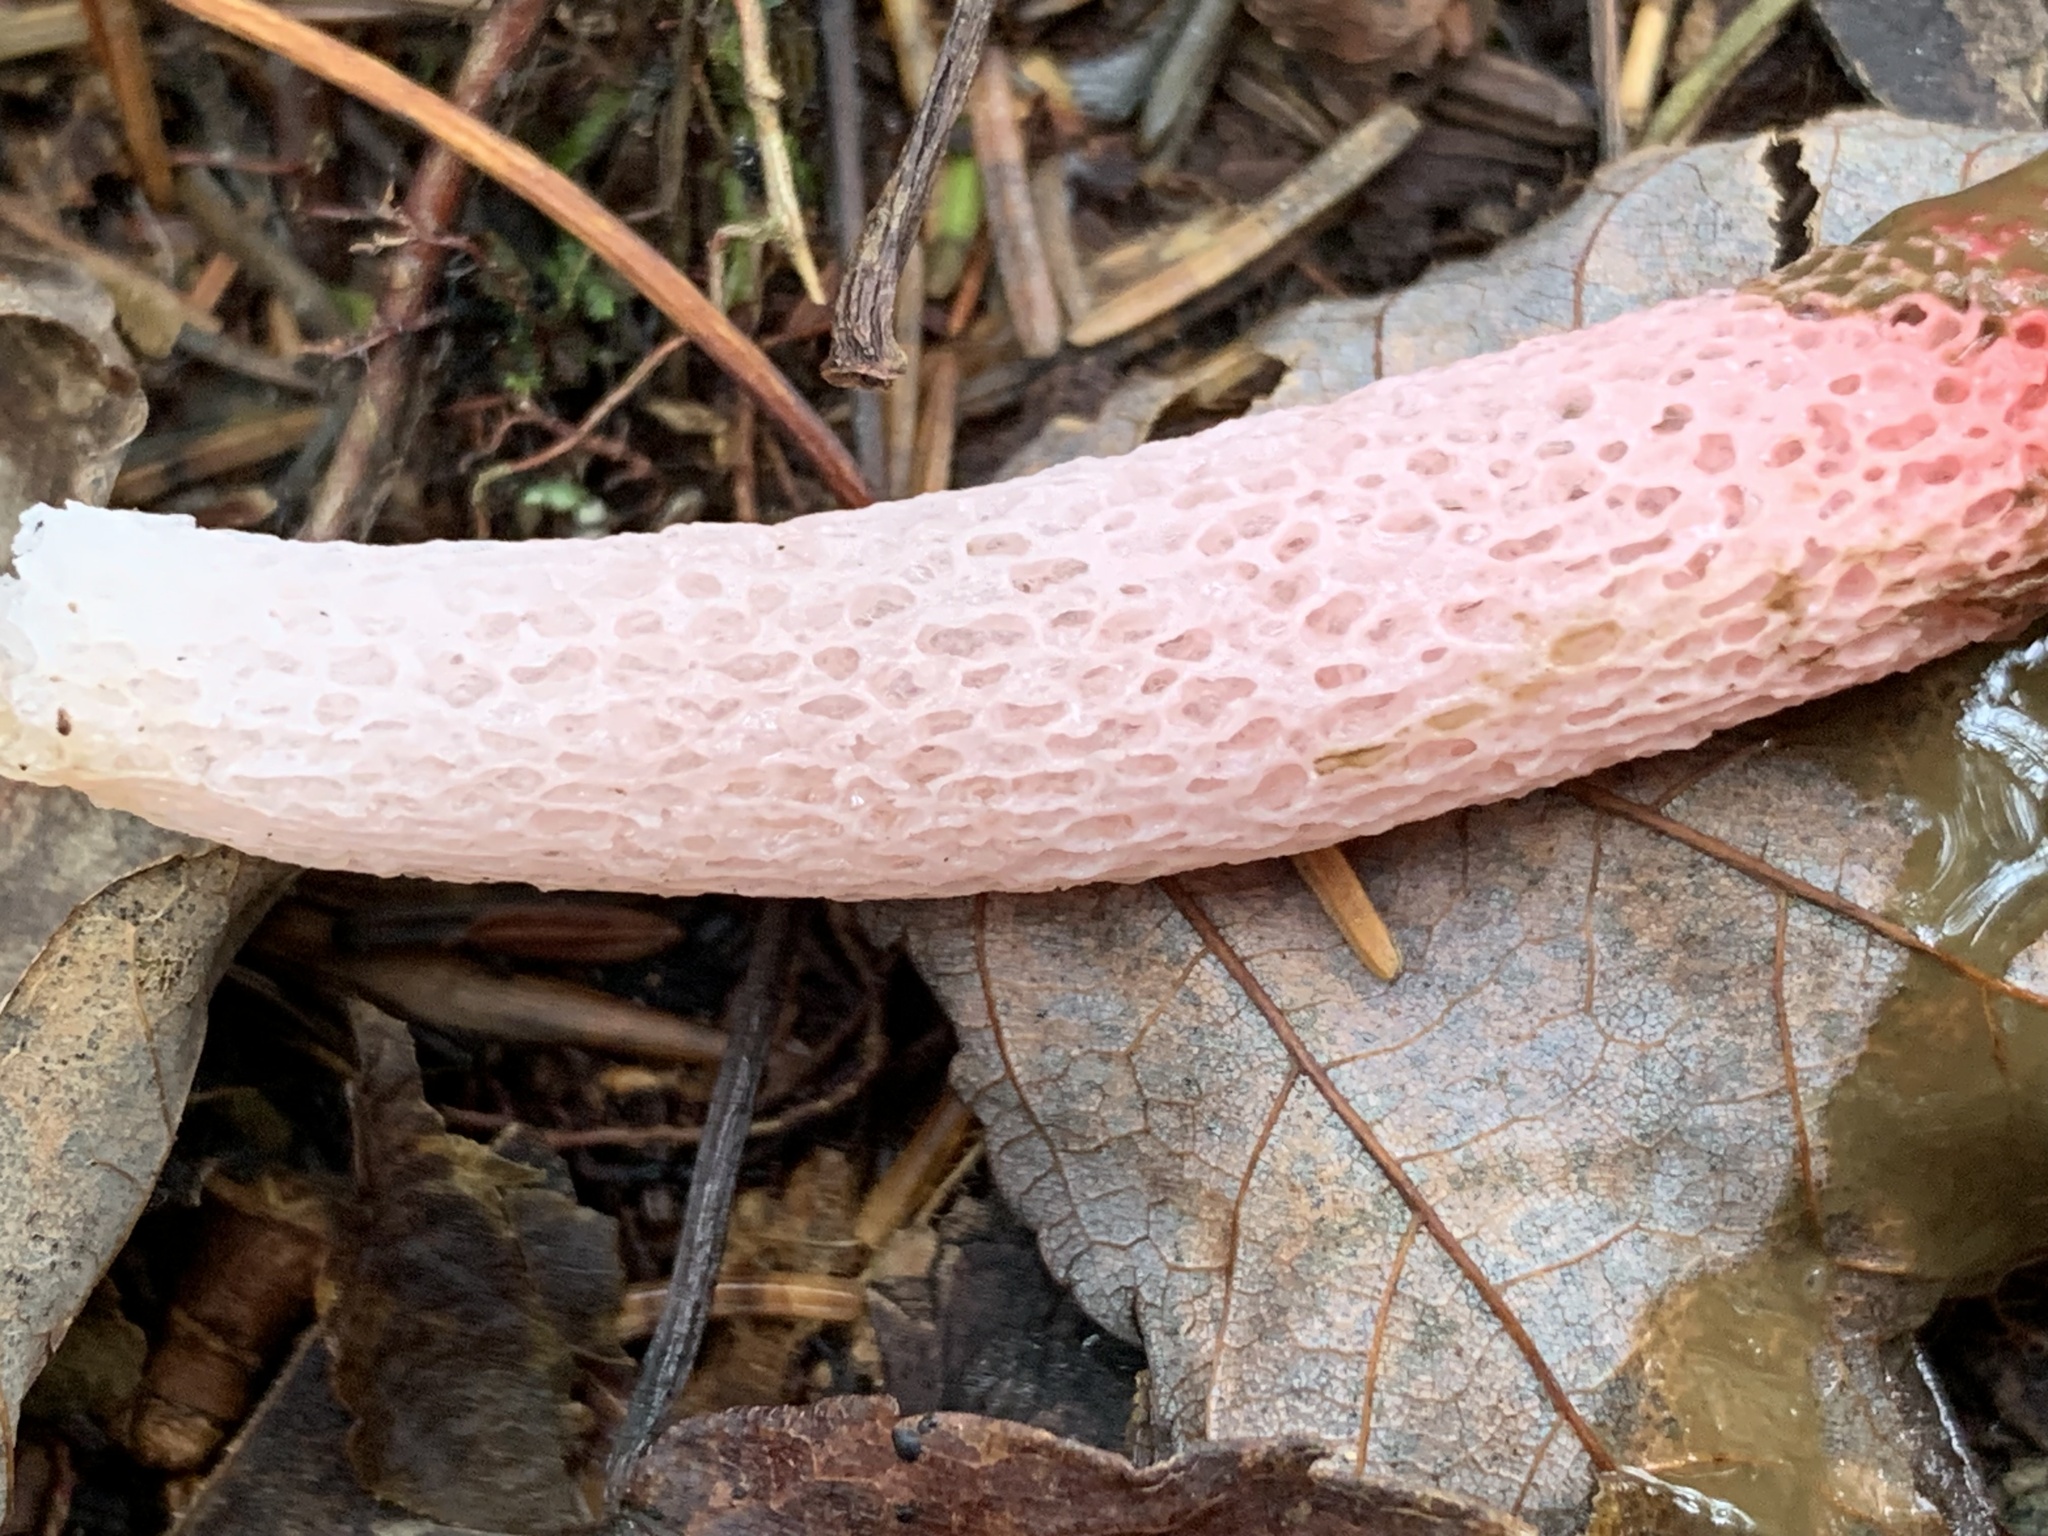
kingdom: Fungi
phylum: Basidiomycota
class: Agaricomycetes
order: Phallales
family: Phallaceae
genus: Mutinus
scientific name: Mutinus ravenelii
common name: Red stinkhorn
